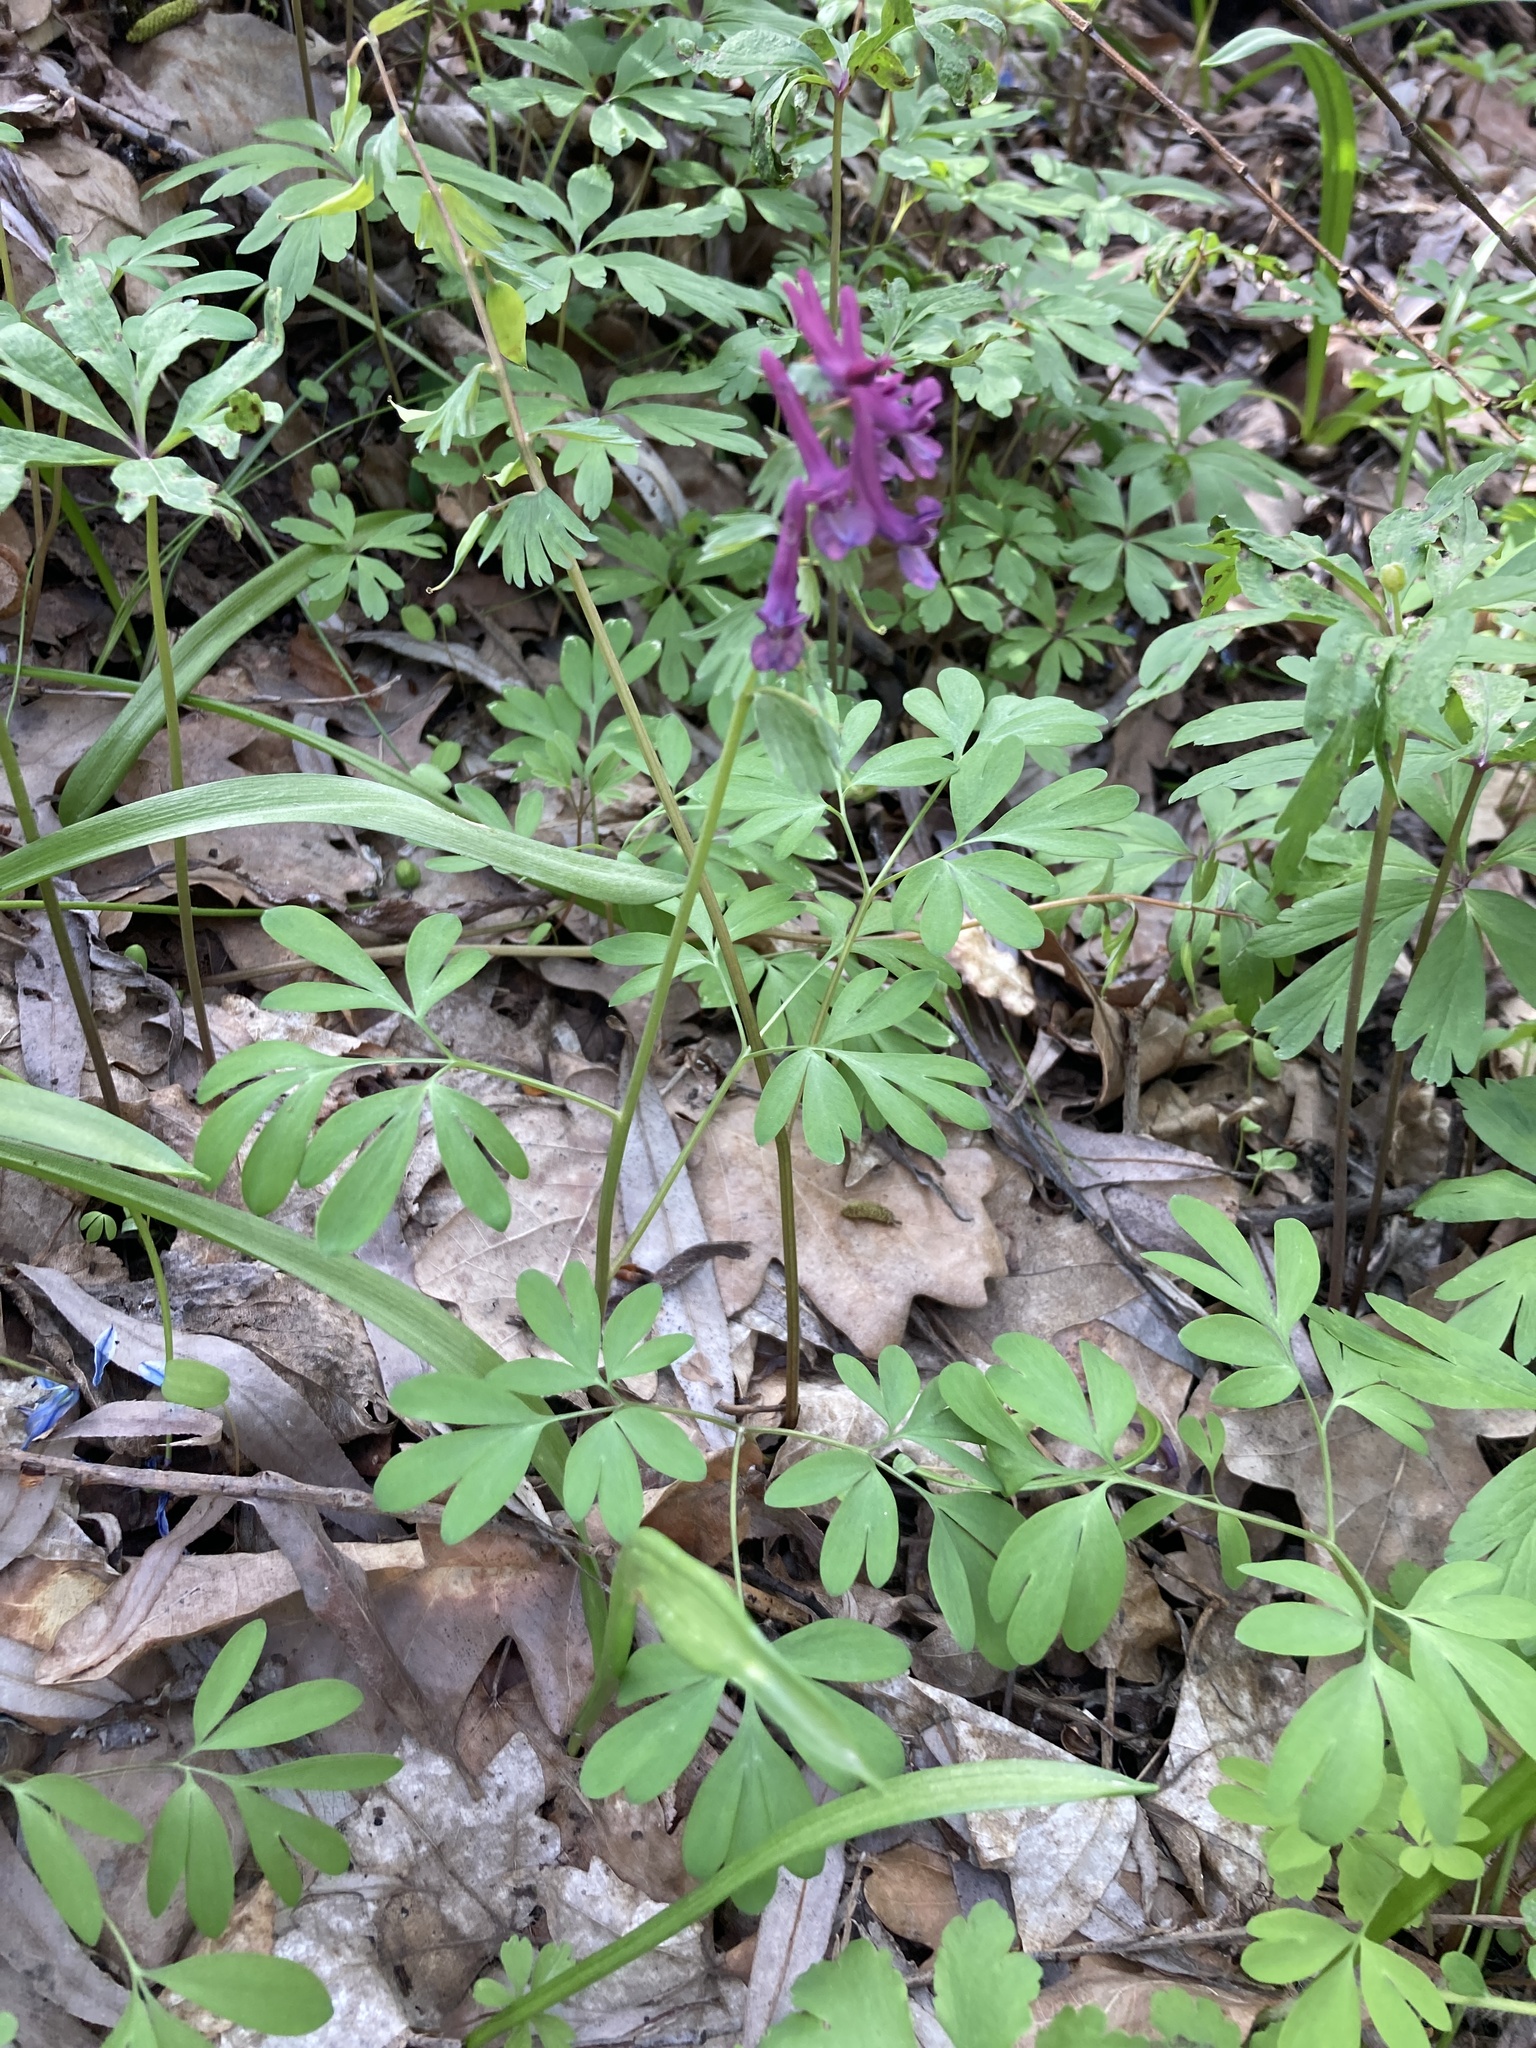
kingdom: Plantae
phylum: Tracheophyta
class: Magnoliopsida
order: Ranunculales
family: Papaveraceae
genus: Corydalis
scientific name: Corydalis solida
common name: Bird-in-a-bush
